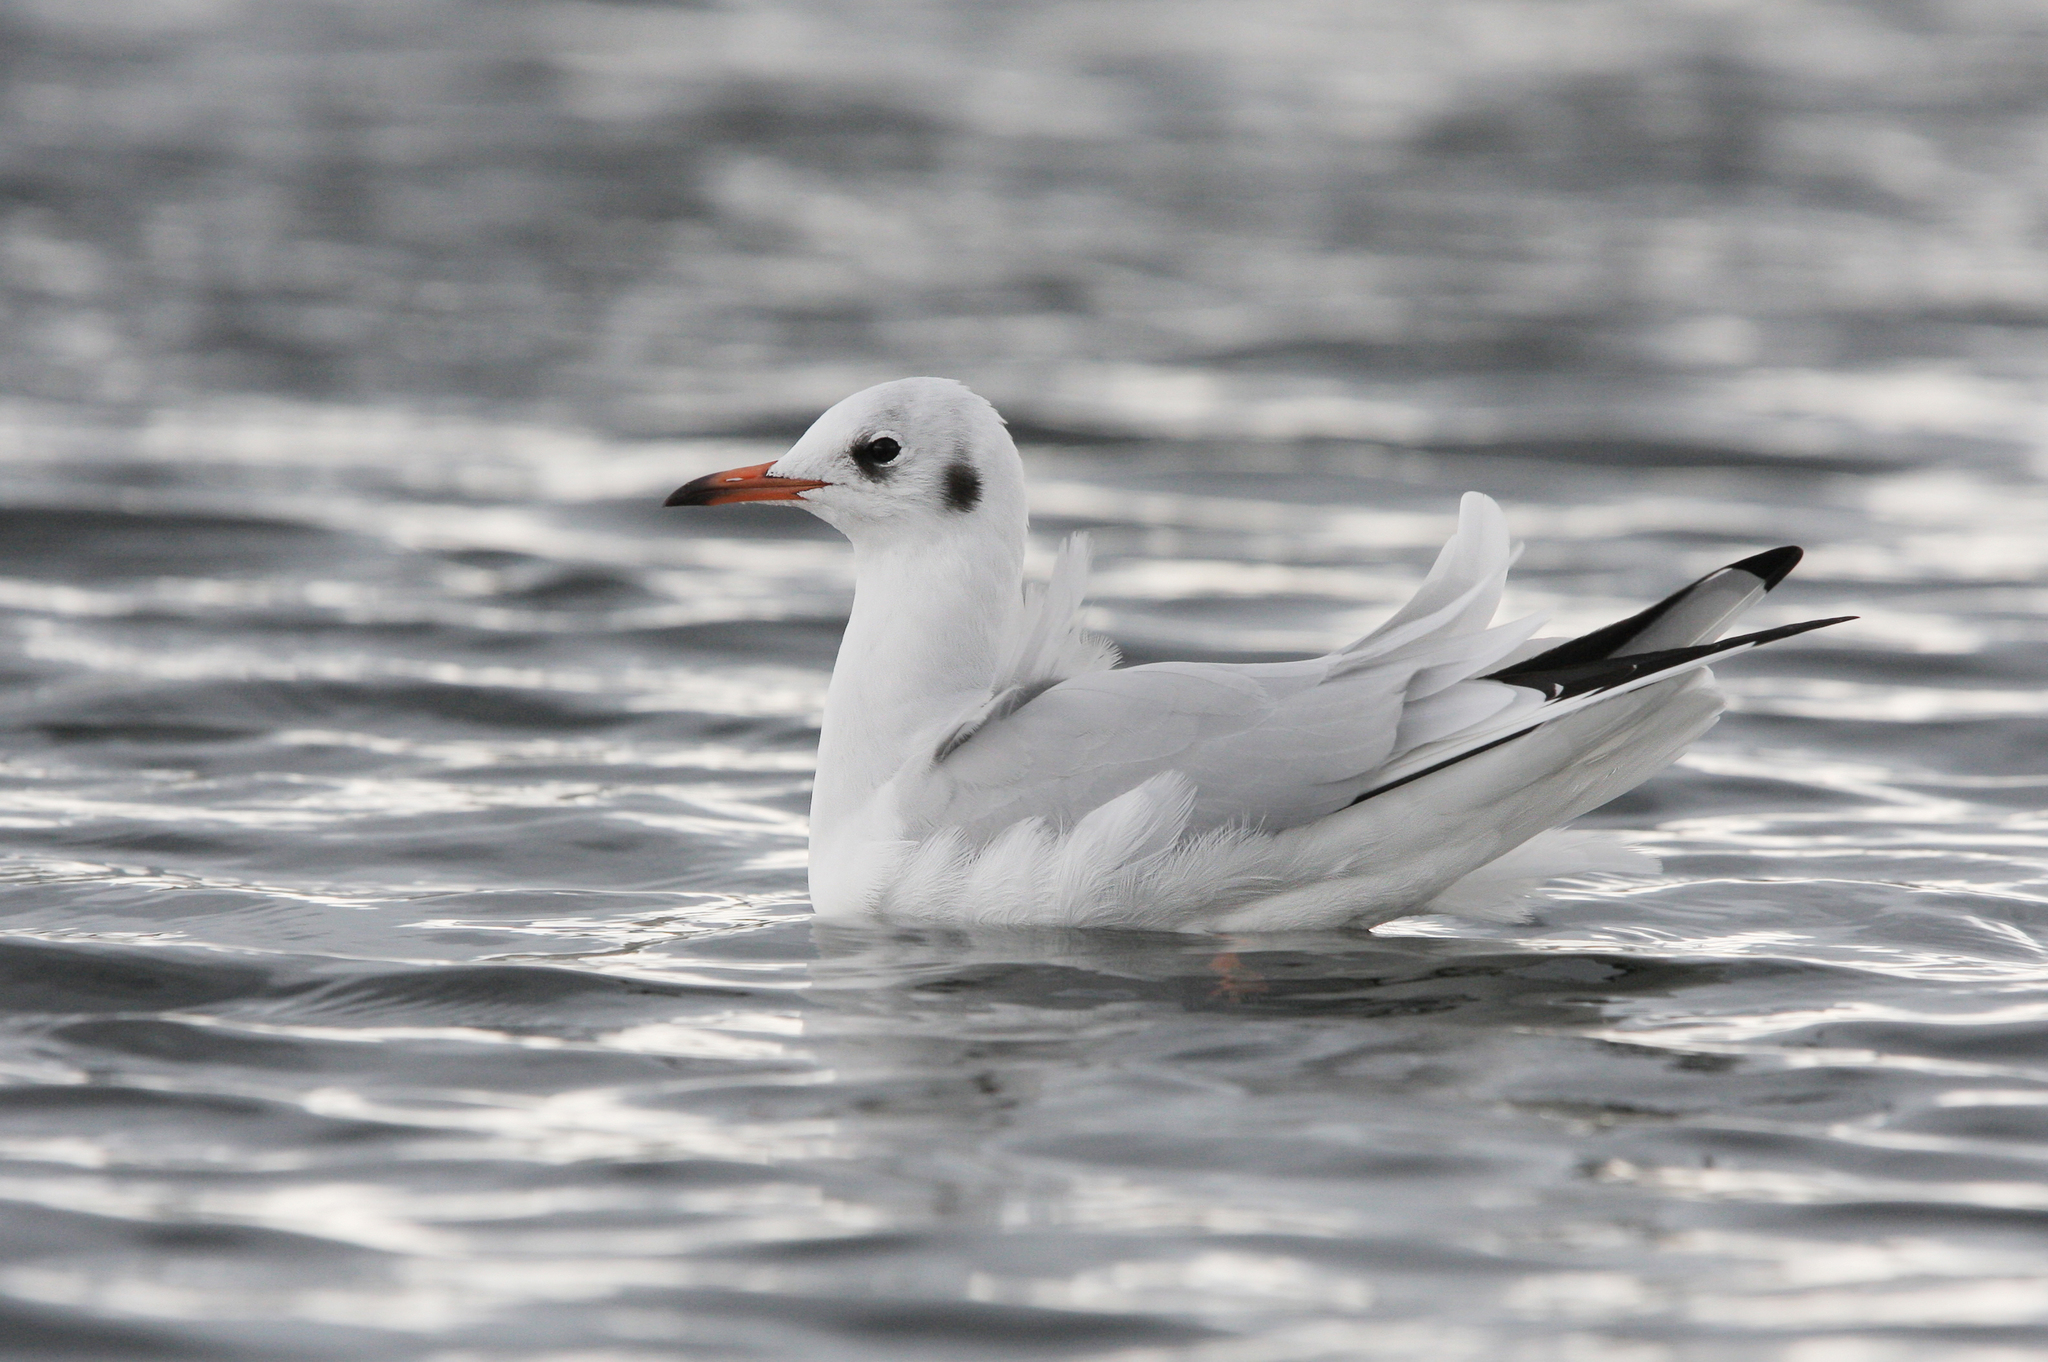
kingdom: Animalia
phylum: Chordata
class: Aves
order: Charadriiformes
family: Laridae
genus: Chroicocephalus
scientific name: Chroicocephalus ridibundus
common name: Black-headed gull
